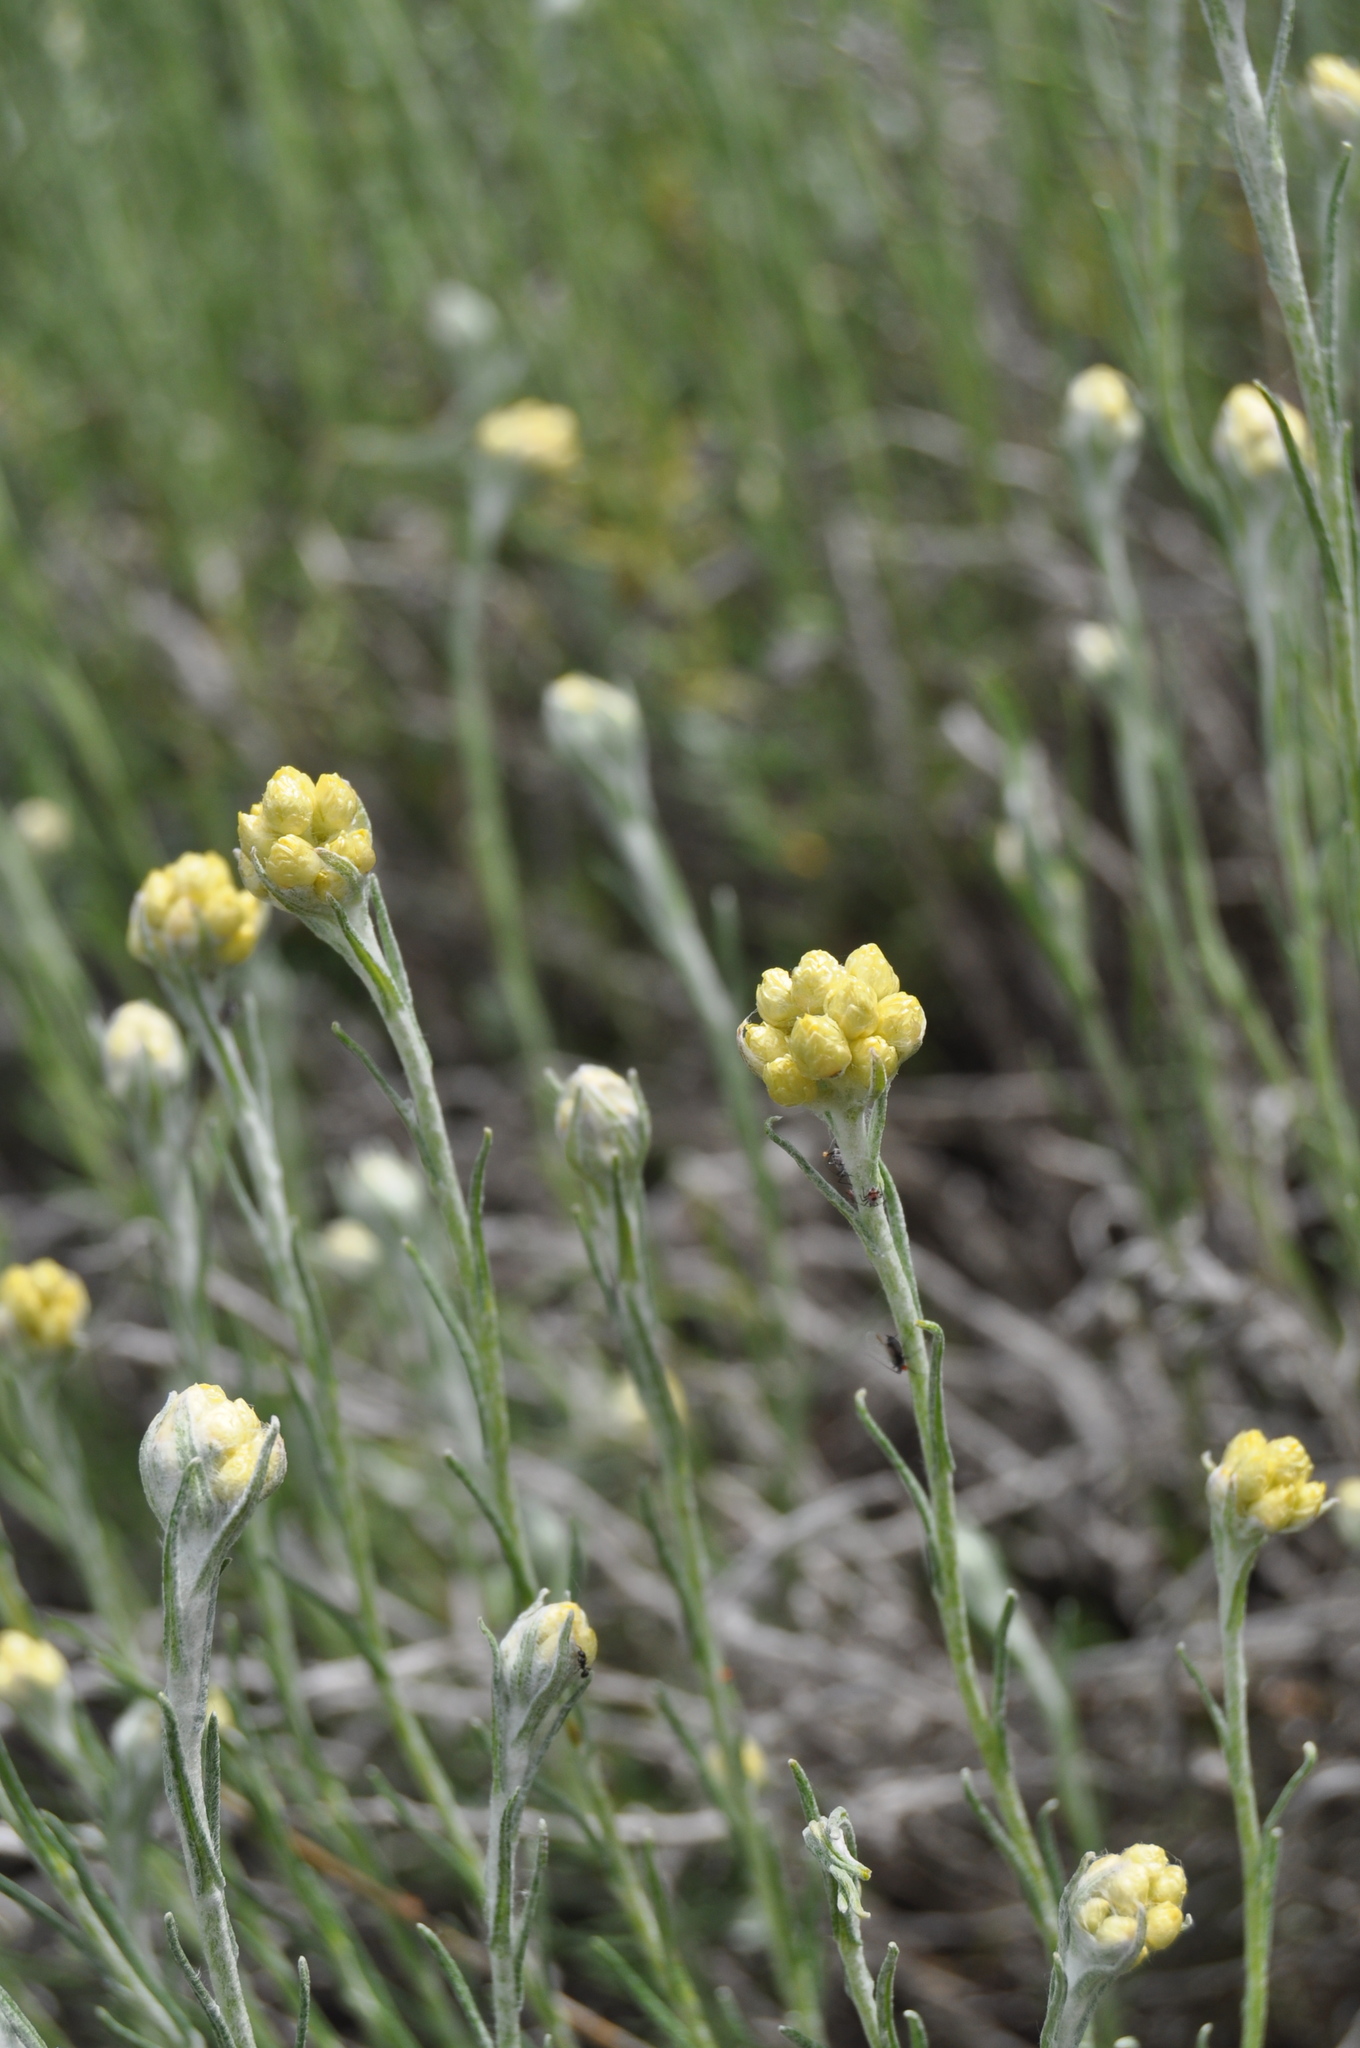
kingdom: Plantae
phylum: Tracheophyta
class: Magnoliopsida
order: Asterales
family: Asteraceae
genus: Helichrysum
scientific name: Helichrysum stoechas
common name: Goldilocks
